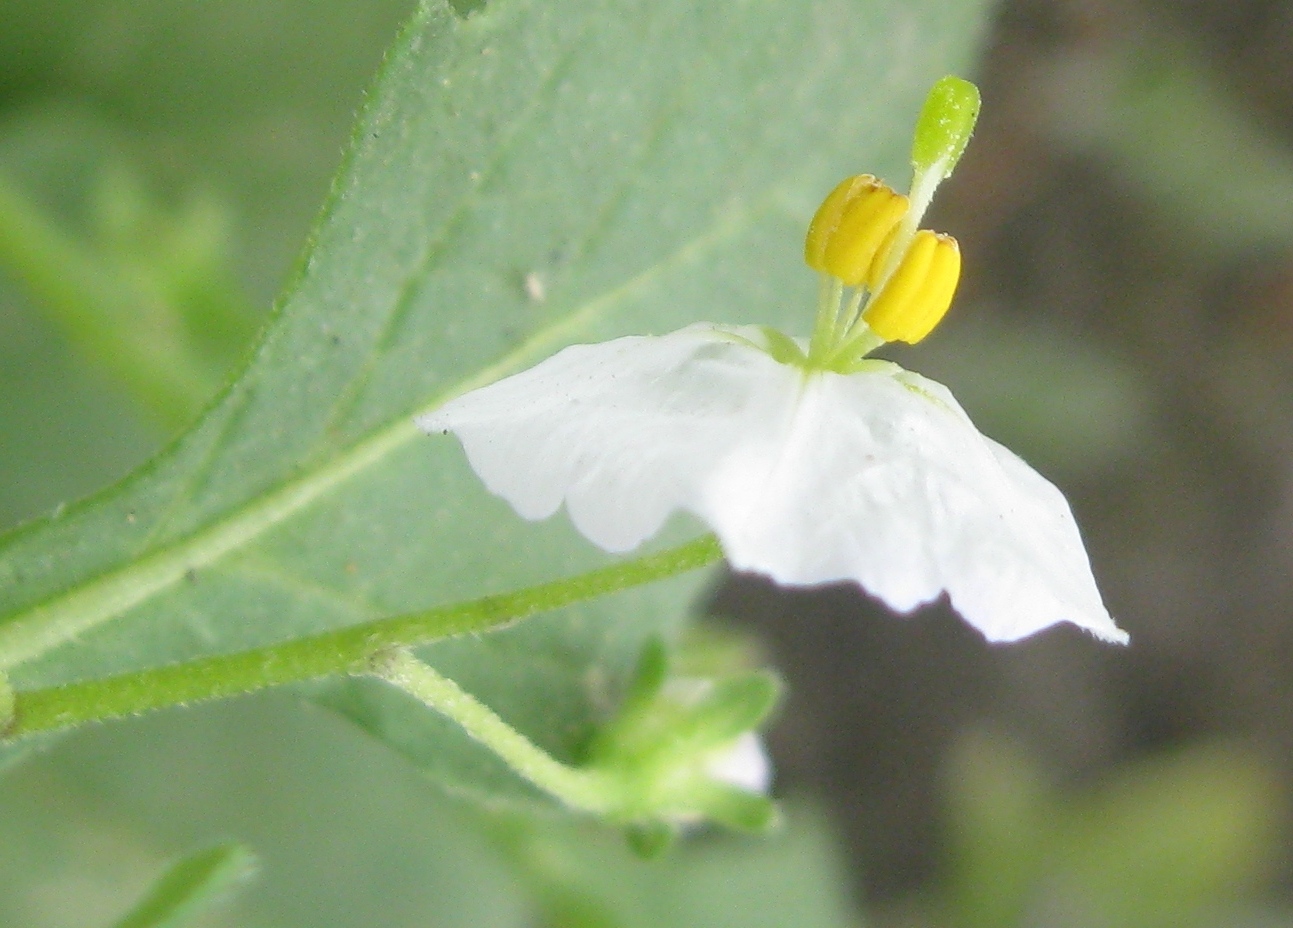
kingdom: Plantae
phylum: Tracheophyta
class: Magnoliopsida
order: Solanales
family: Solanaceae
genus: Solanum
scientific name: Solanum montanum
